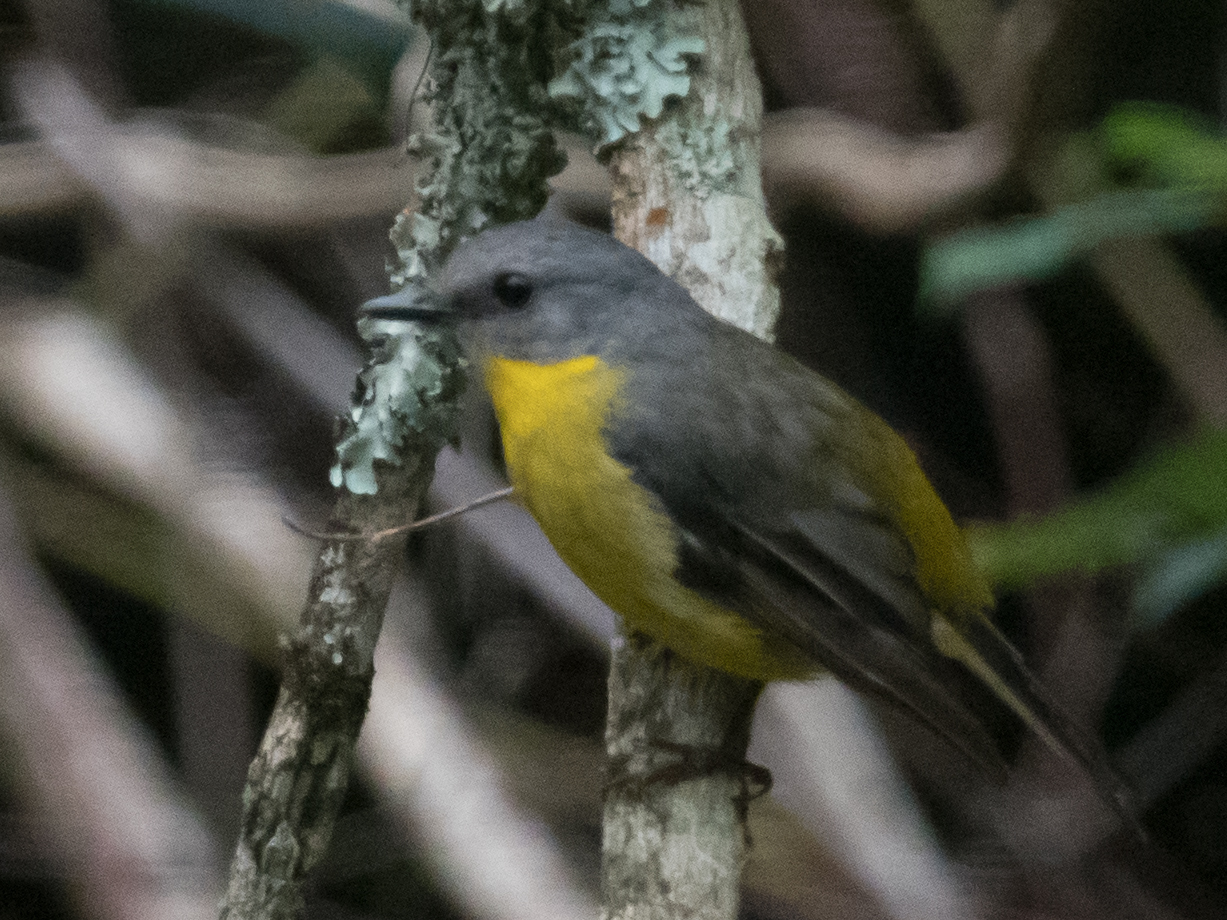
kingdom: Animalia
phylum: Chordata
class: Aves
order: Passeriformes
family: Petroicidae
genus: Eopsaltria
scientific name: Eopsaltria australis
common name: Eastern yellow robin
